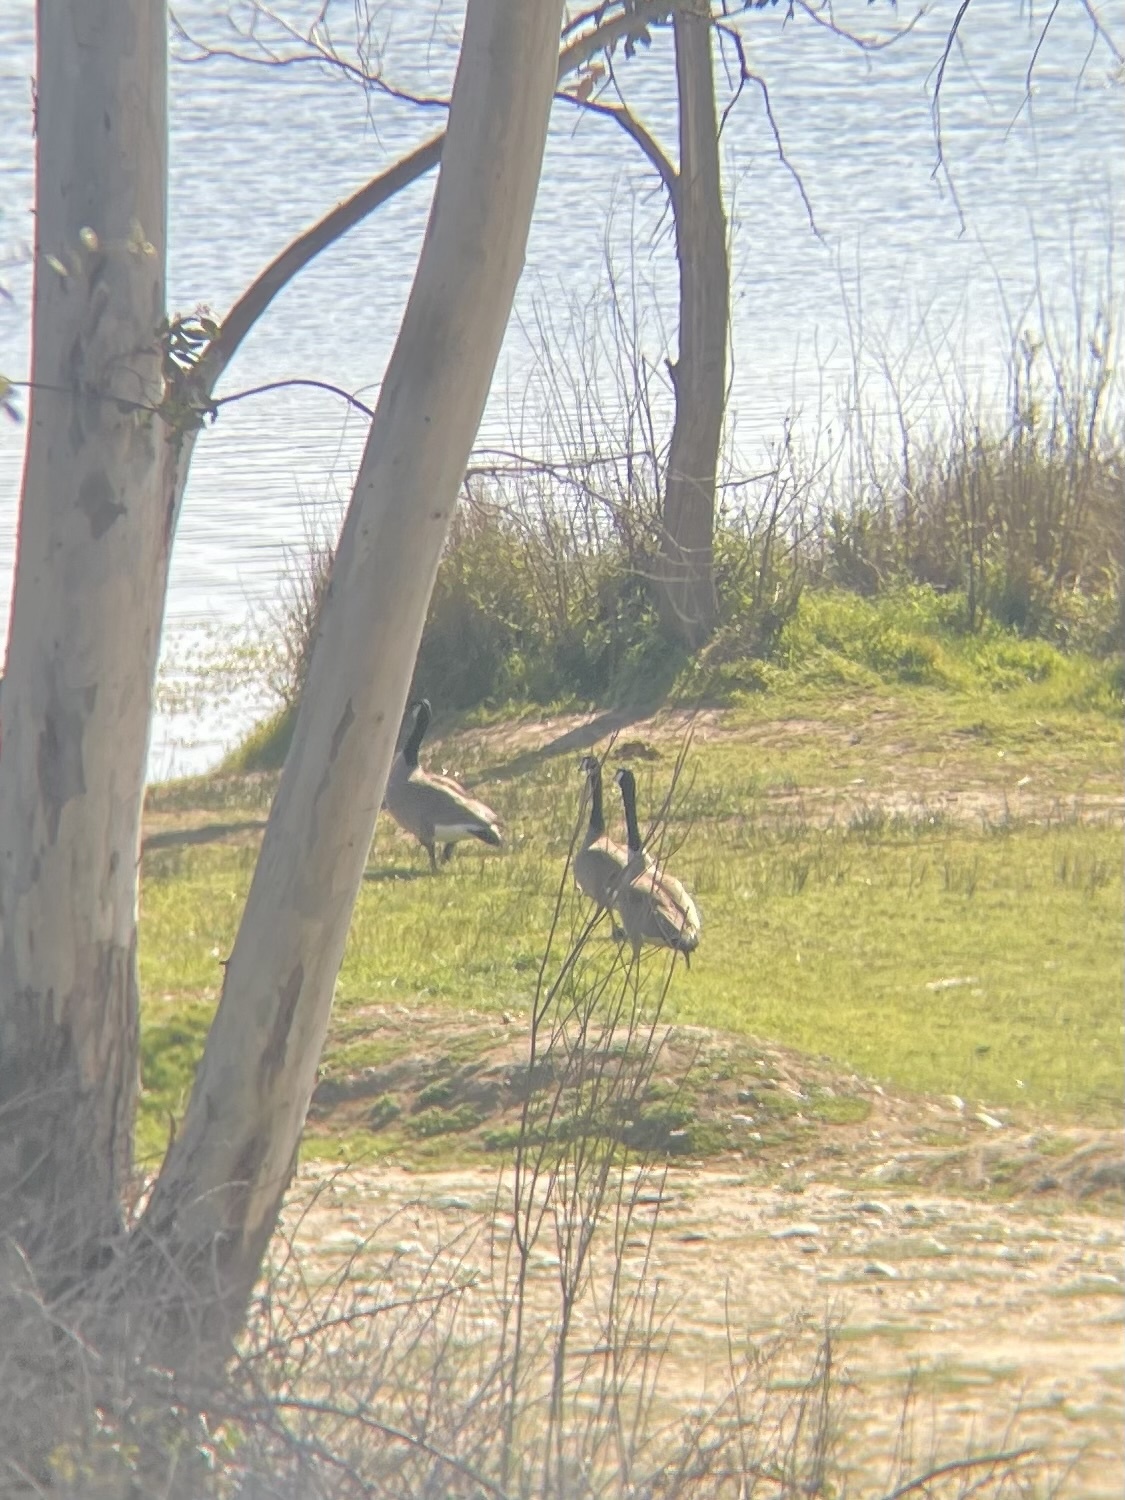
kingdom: Animalia
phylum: Chordata
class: Aves
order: Anseriformes
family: Anatidae
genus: Branta
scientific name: Branta canadensis
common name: Canada goose
